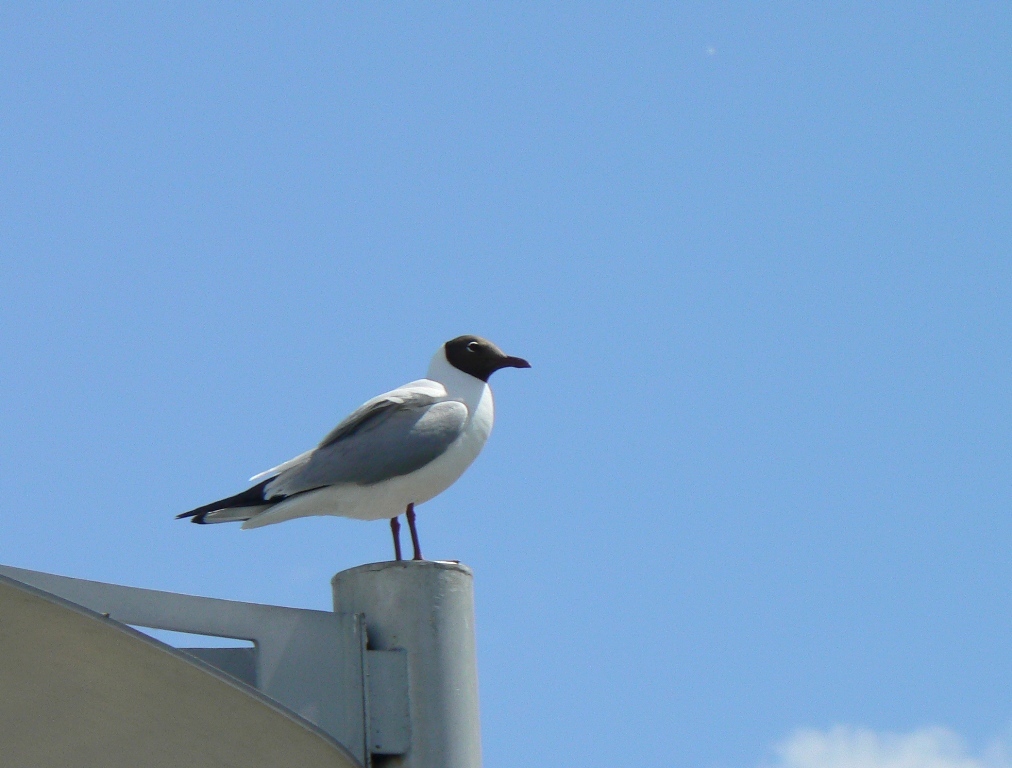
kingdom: Animalia
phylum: Chordata
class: Aves
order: Charadriiformes
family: Laridae
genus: Chroicocephalus
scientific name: Chroicocephalus ridibundus
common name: Black-headed gull
